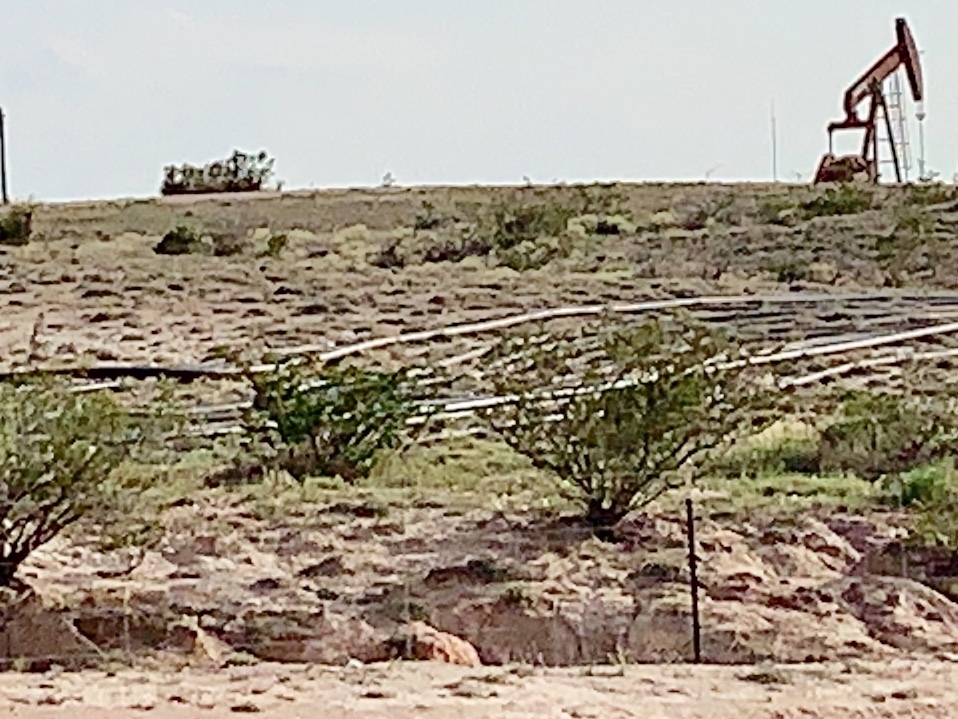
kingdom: Plantae
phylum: Tracheophyta
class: Magnoliopsida
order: Zygophyllales
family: Zygophyllaceae
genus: Larrea
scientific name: Larrea tridentata
